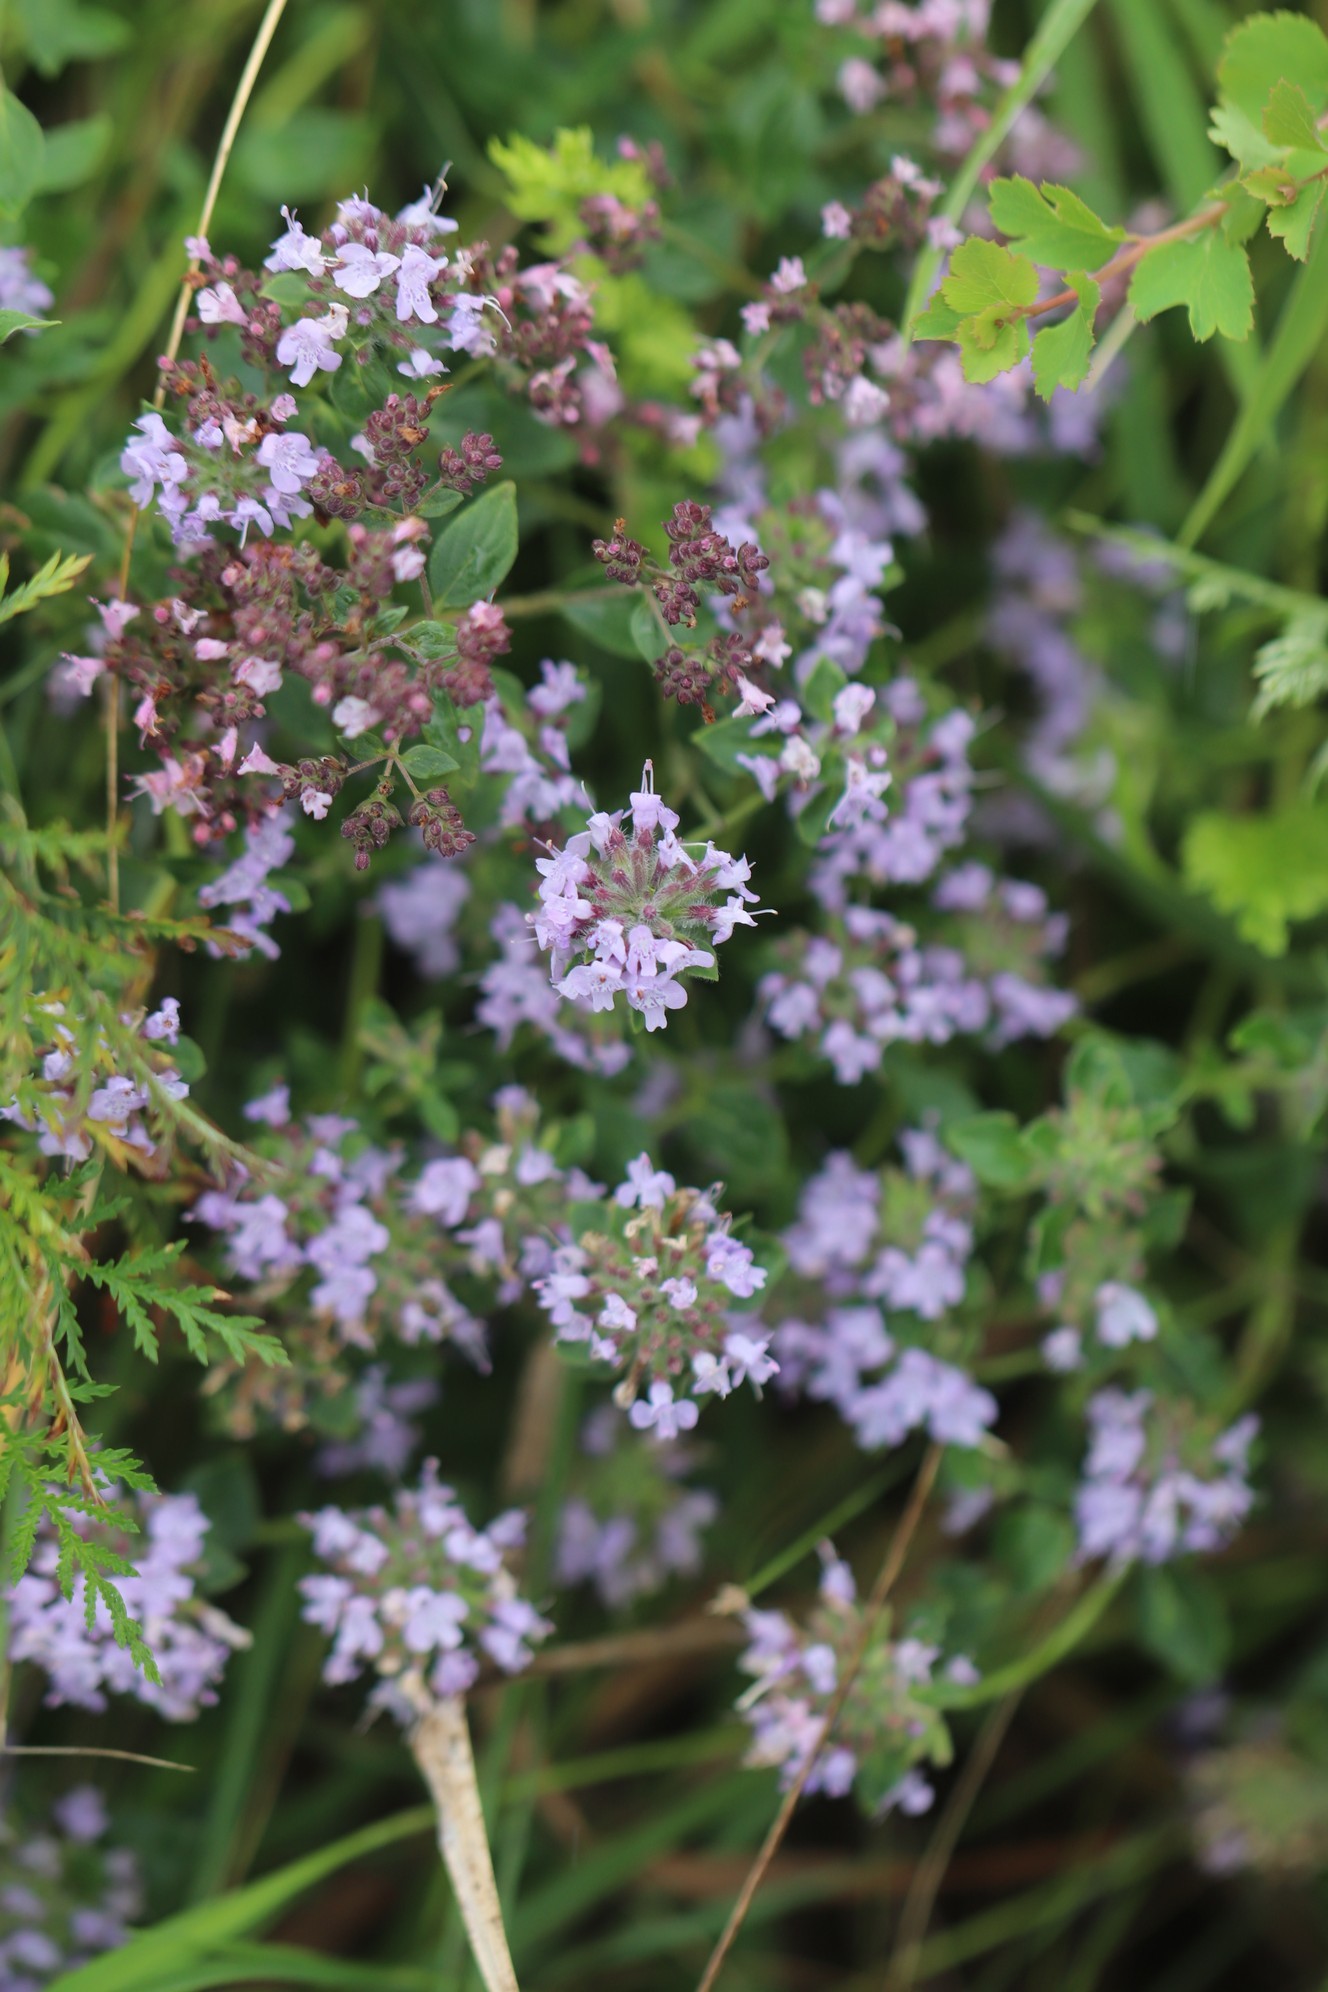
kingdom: Plantae
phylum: Tracheophyta
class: Magnoliopsida
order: Lamiales
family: Lamiaceae
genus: Ziziphora
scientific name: Ziziphora clinopodioides
